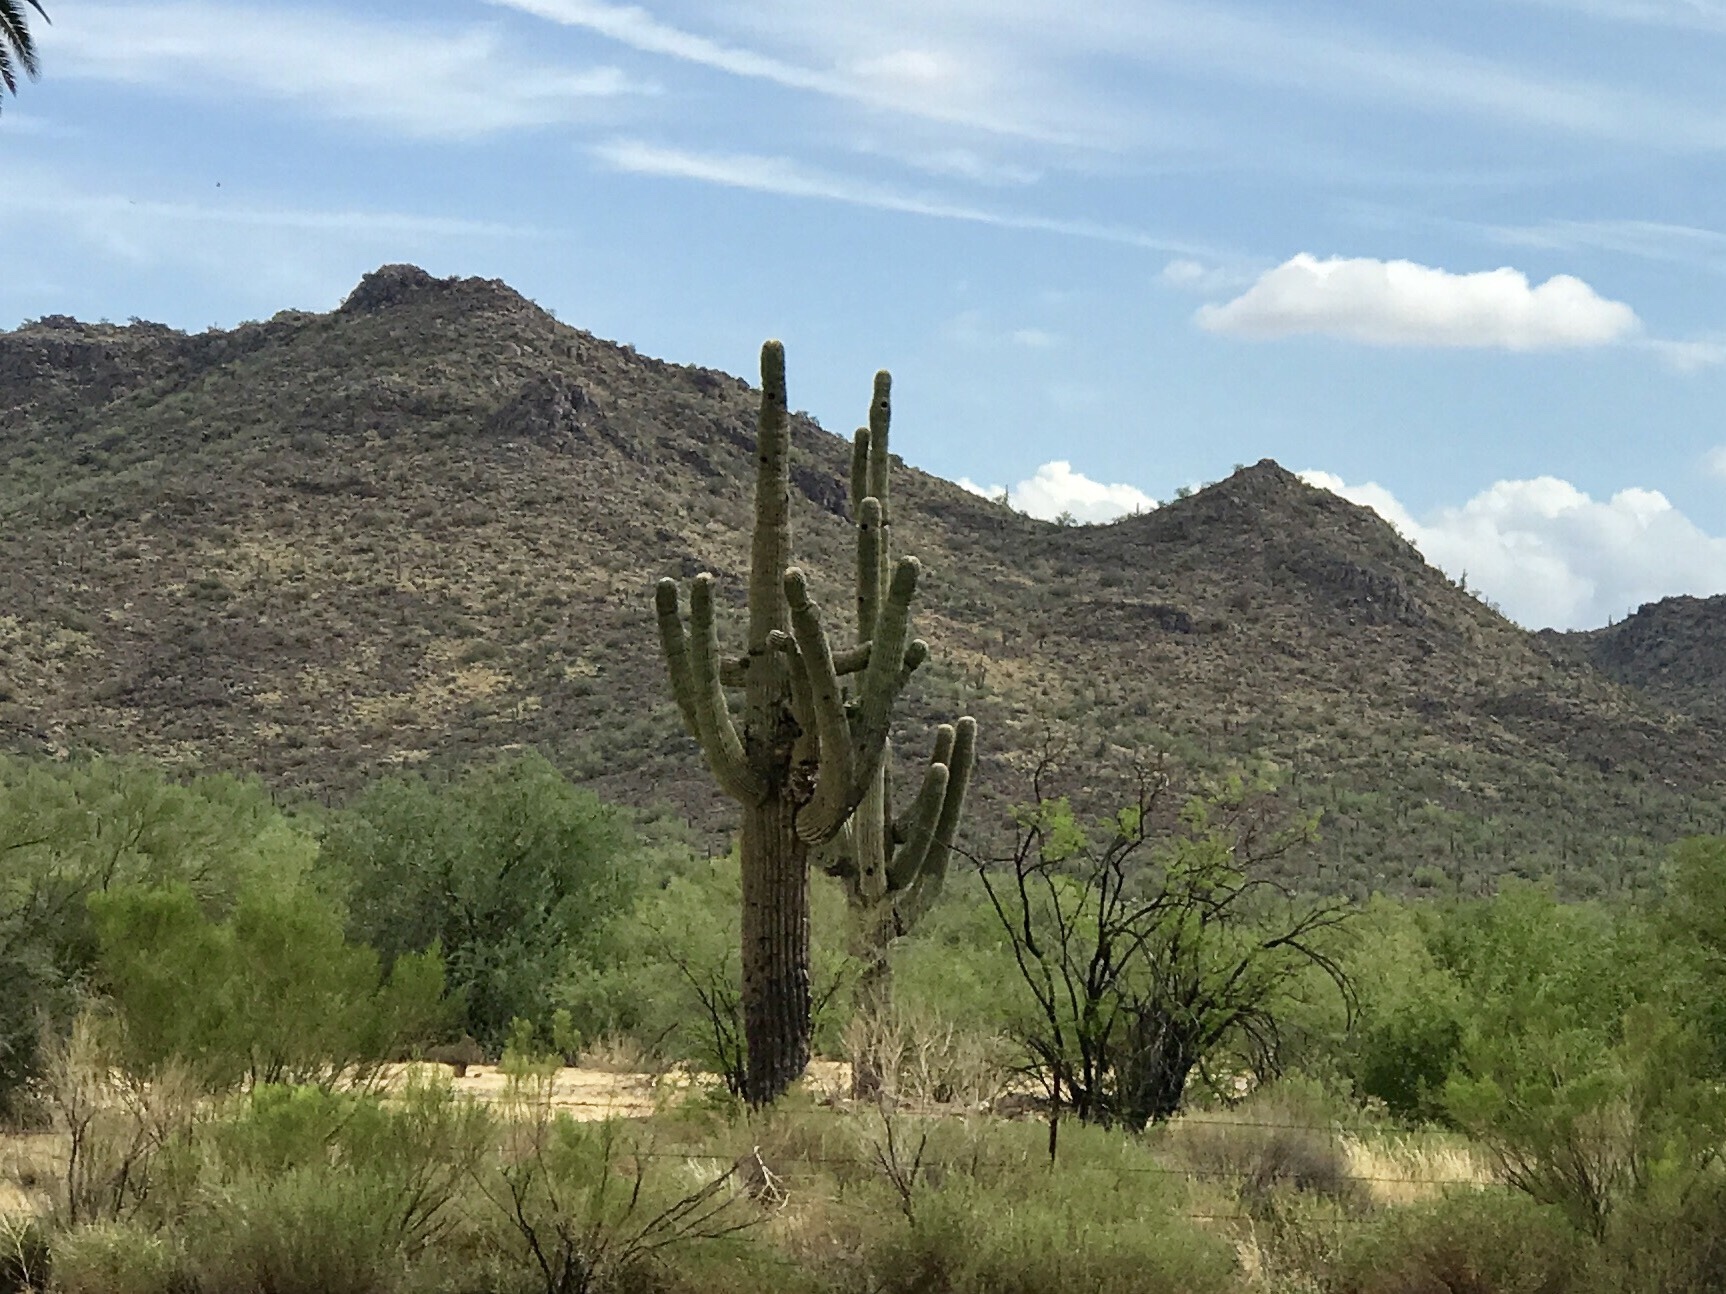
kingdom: Plantae
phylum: Tracheophyta
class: Magnoliopsida
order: Caryophyllales
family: Cactaceae
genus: Carnegiea
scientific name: Carnegiea gigantea
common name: Saguaro
